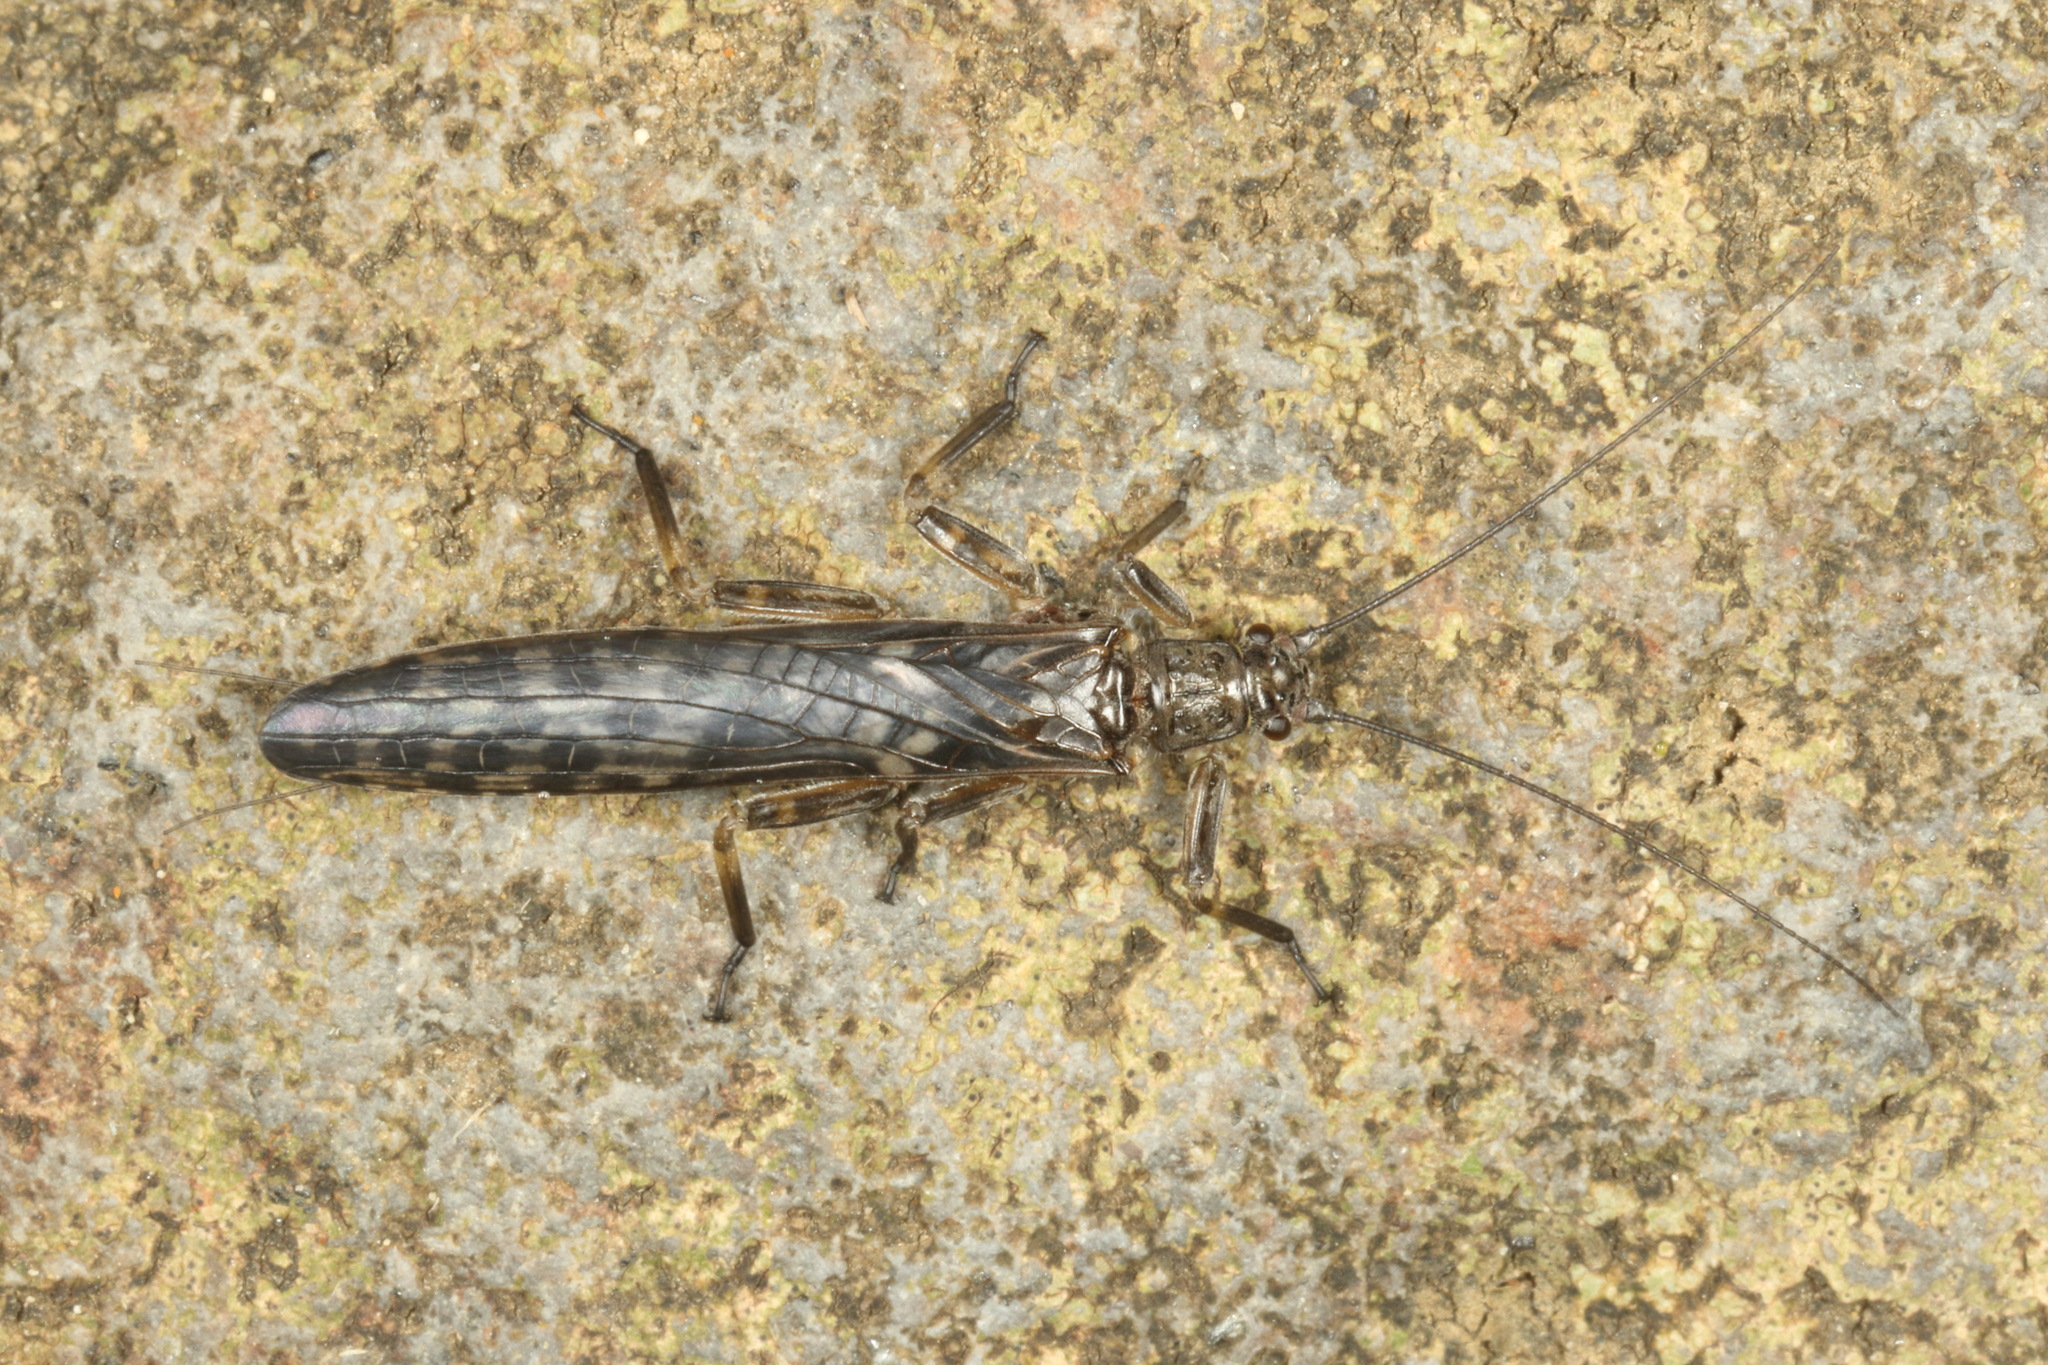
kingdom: Animalia
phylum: Arthropoda
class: Insecta
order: Plecoptera
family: Gripopterygidae
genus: Zelandoperla
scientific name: Zelandoperla decorata
